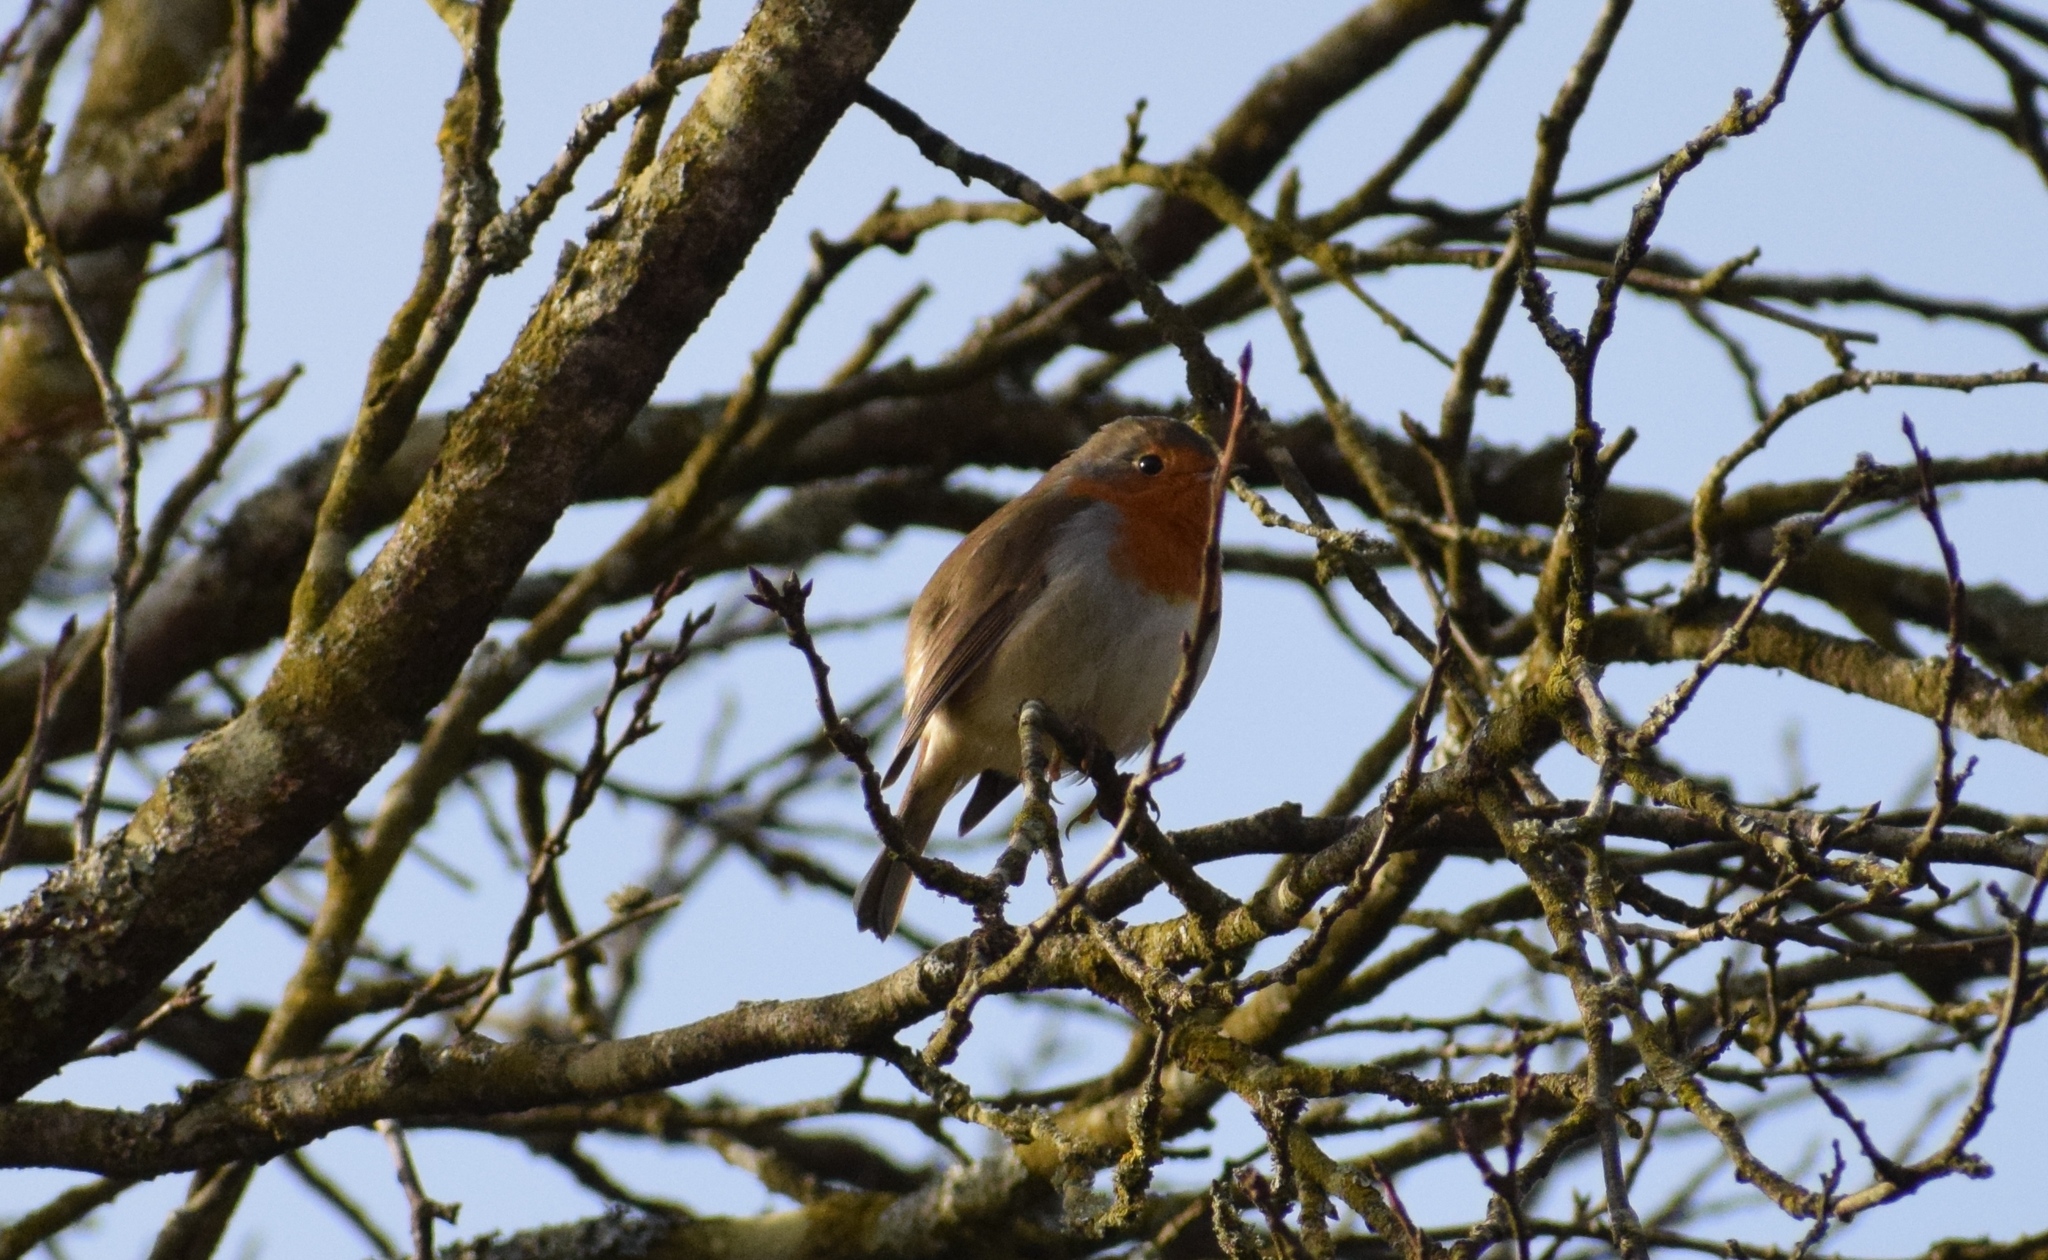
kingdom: Animalia
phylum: Chordata
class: Aves
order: Passeriformes
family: Muscicapidae
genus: Erithacus
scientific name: Erithacus rubecula
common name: European robin
